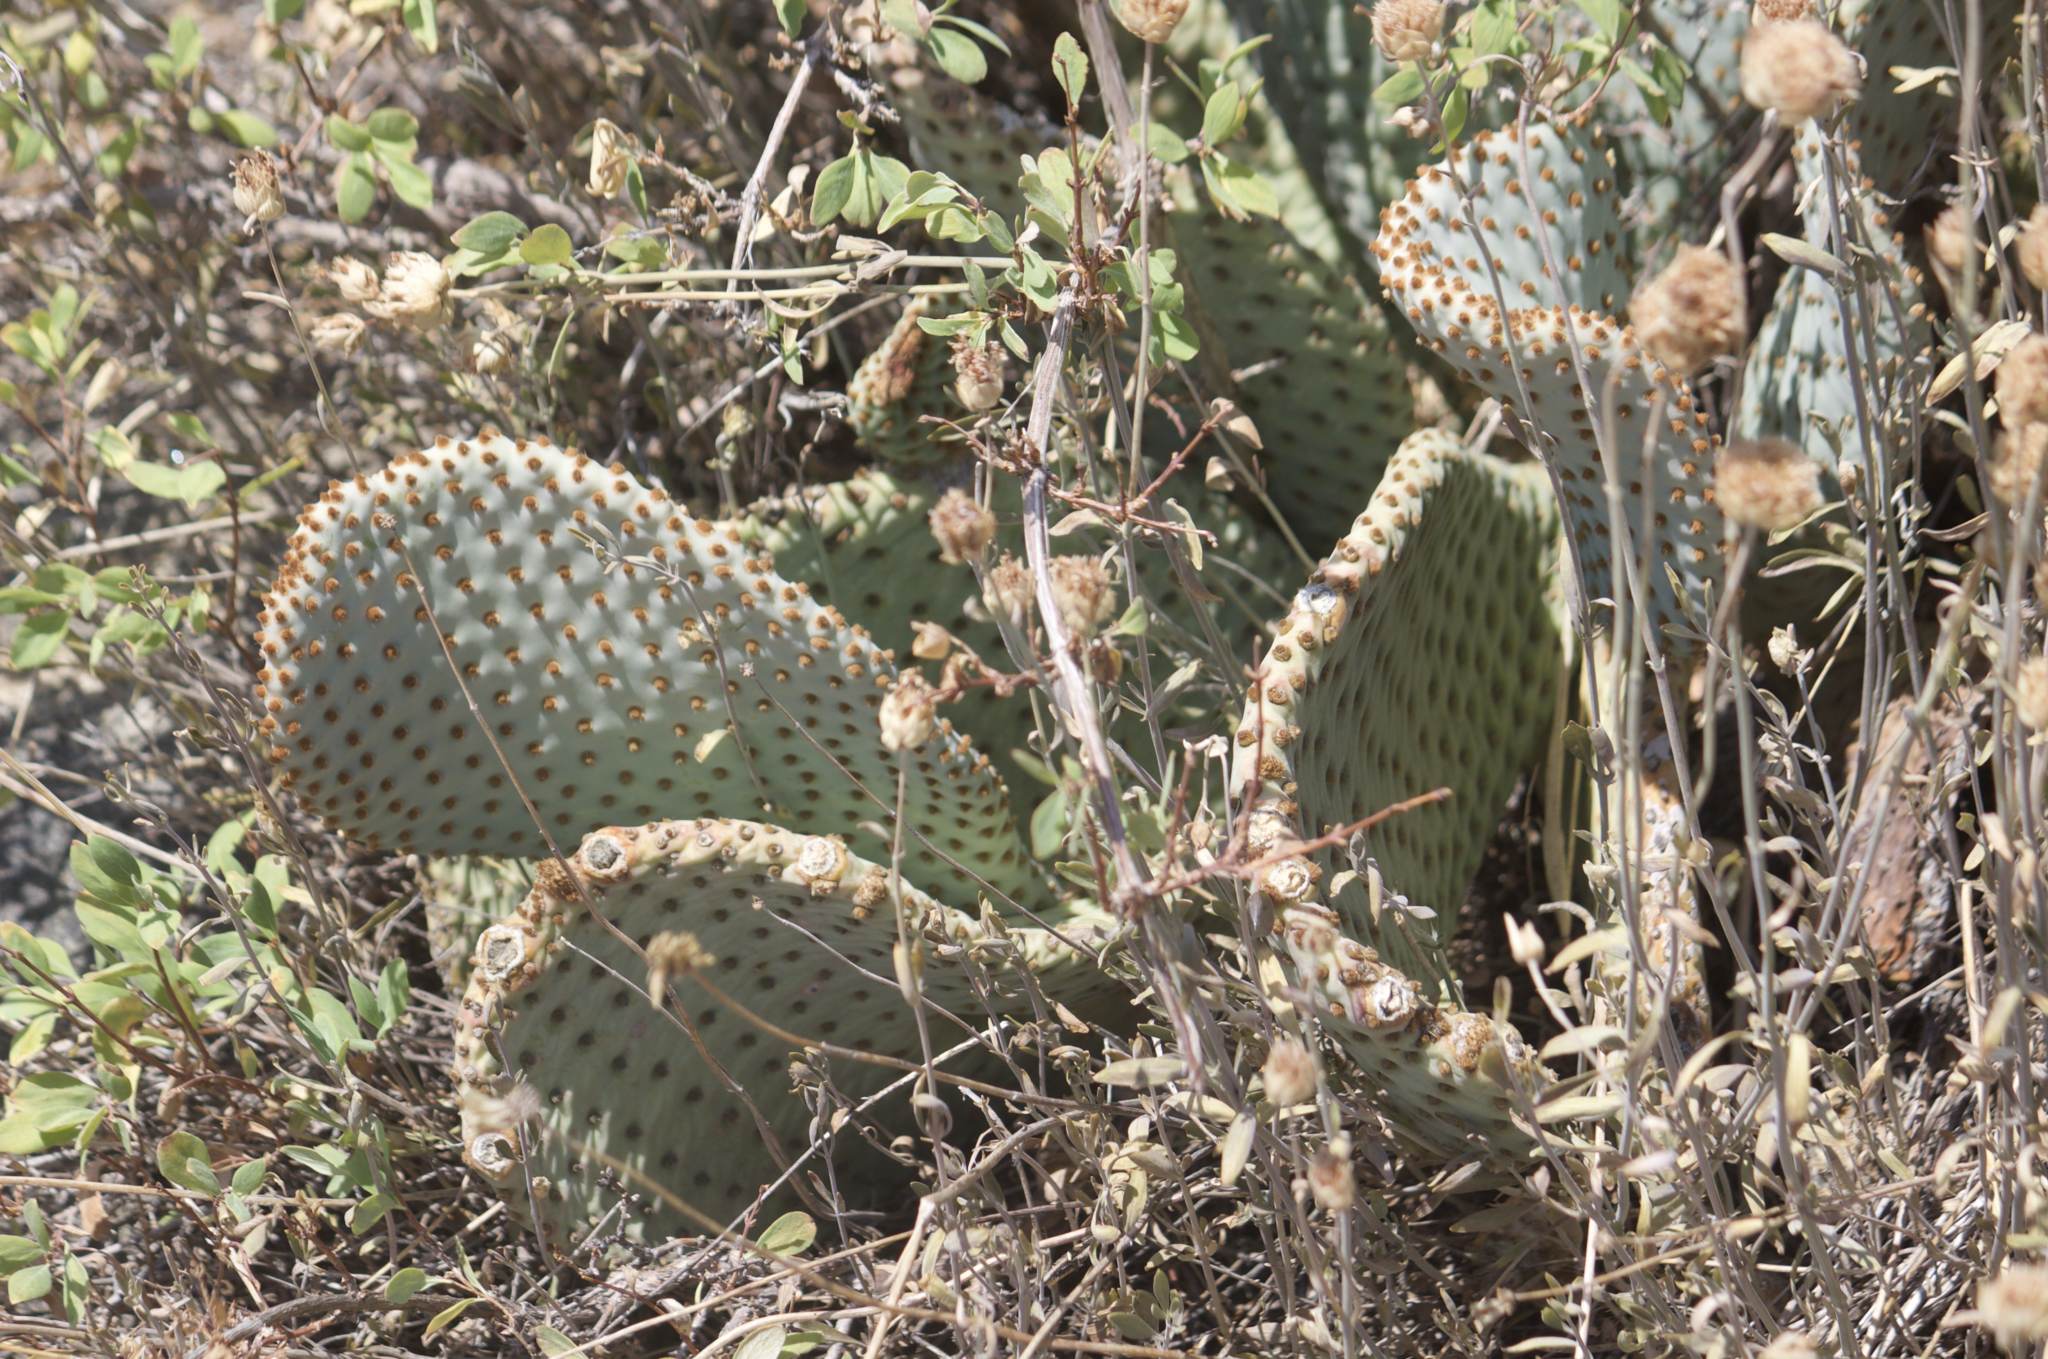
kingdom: Plantae
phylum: Tracheophyta
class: Magnoliopsida
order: Caryophyllales
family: Cactaceae
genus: Opuntia
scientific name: Opuntia basilaris
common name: Beavertail prickly-pear
